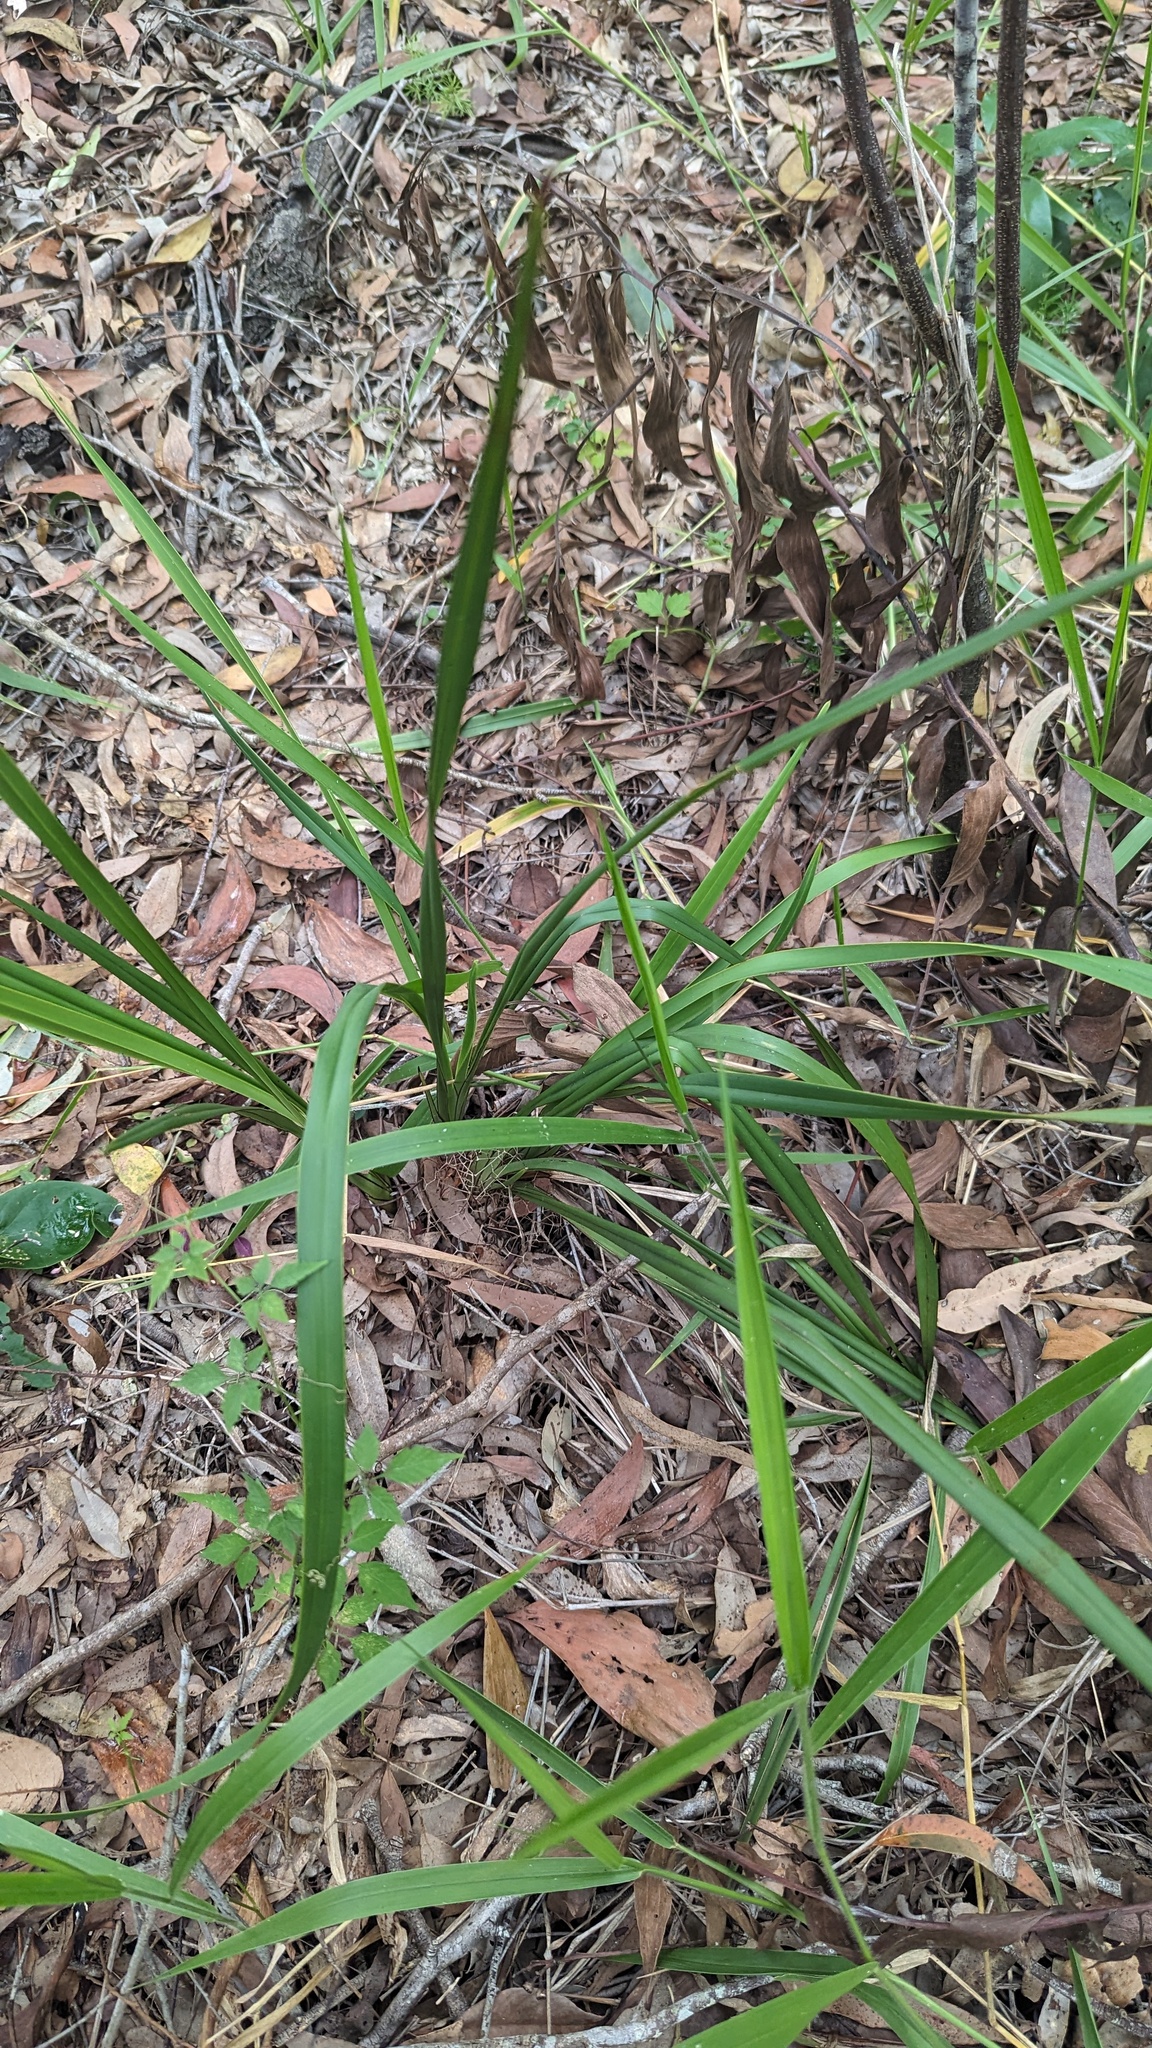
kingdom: Plantae
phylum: Tracheophyta
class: Liliopsida
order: Asparagales
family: Asphodelaceae
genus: Dianella
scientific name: Dianella brevipedunculata
